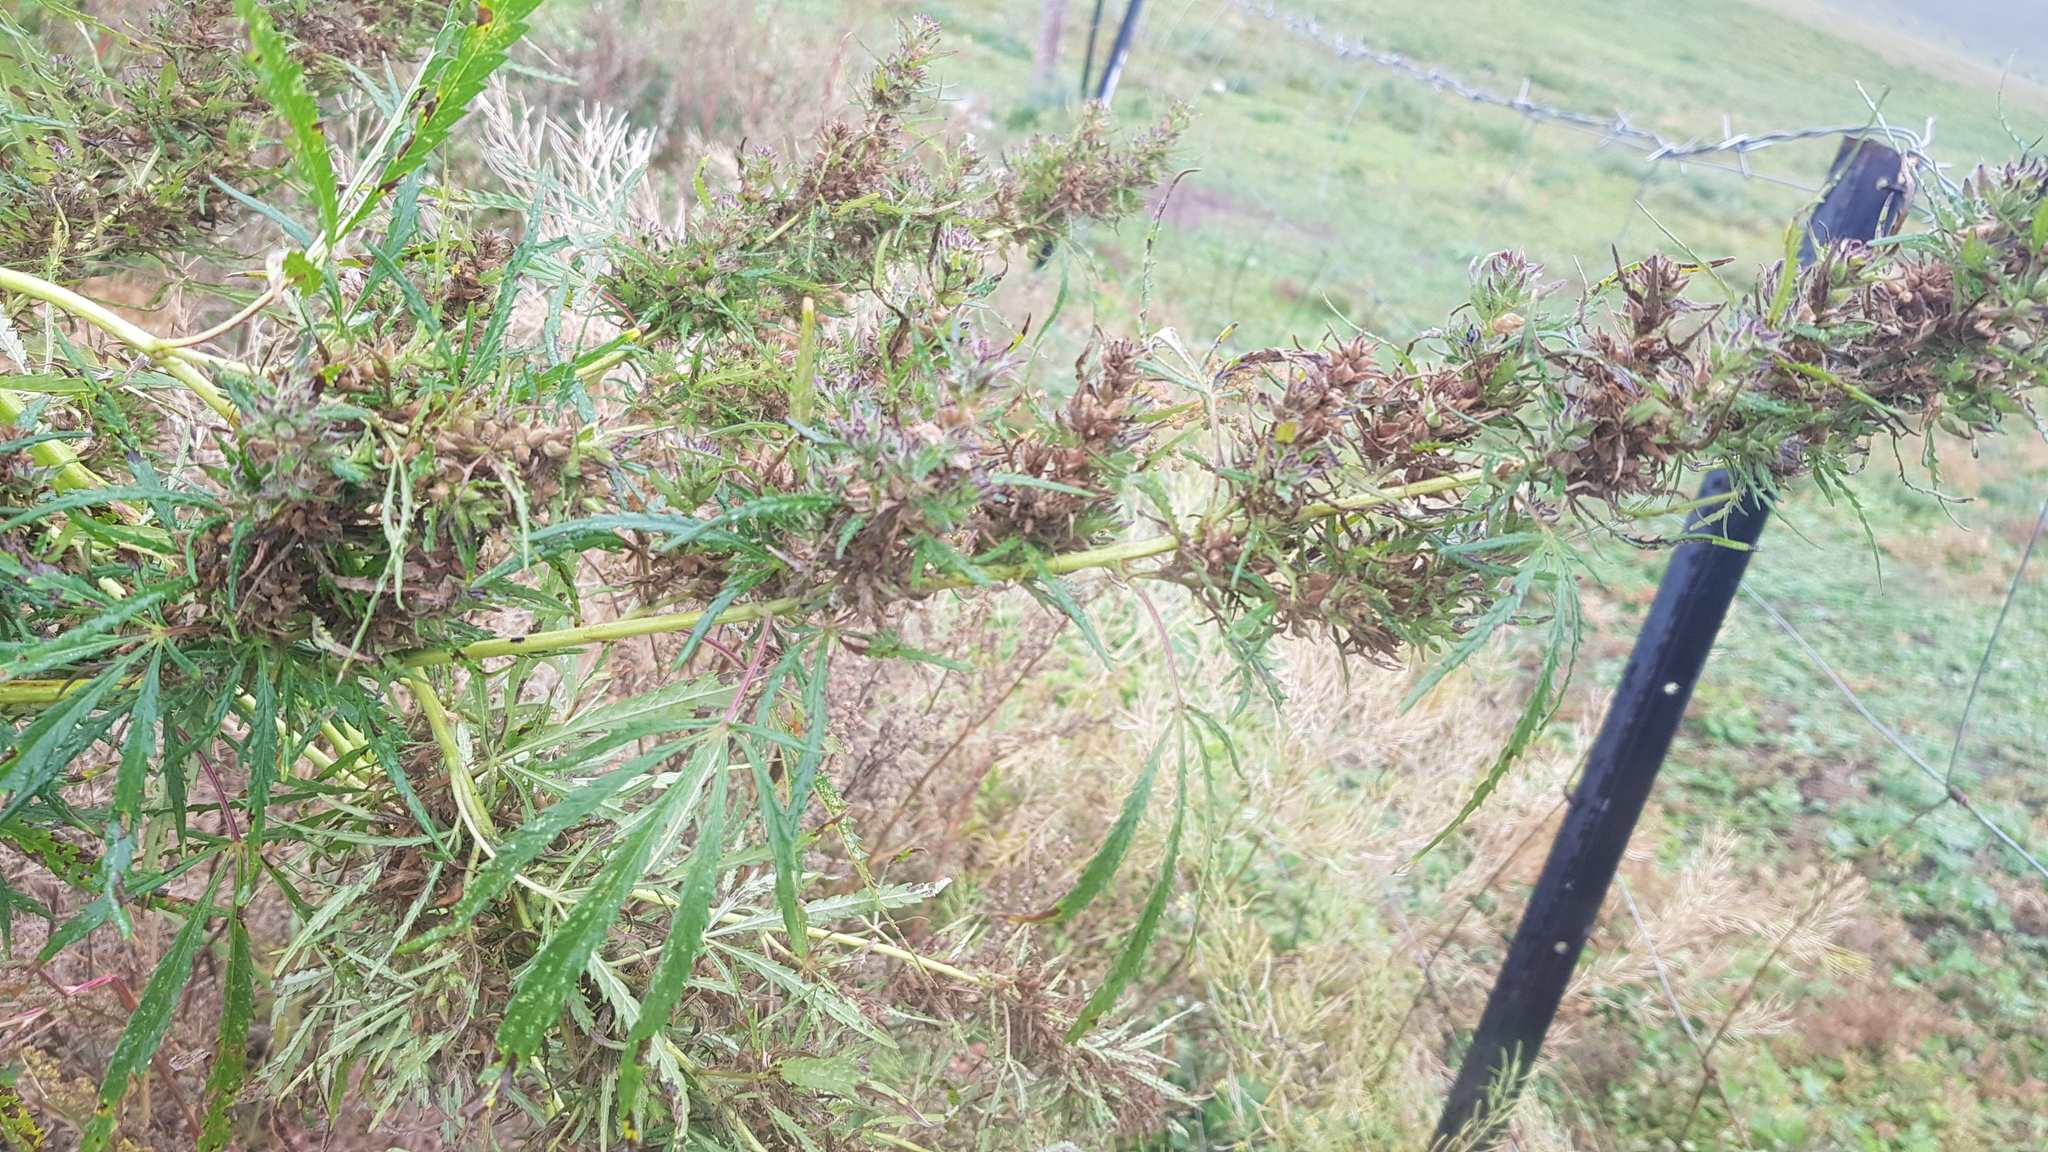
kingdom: Plantae
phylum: Tracheophyta
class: Magnoliopsida
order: Rosales
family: Cannabaceae
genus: Cannabis
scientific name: Cannabis sativa
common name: Hemp
